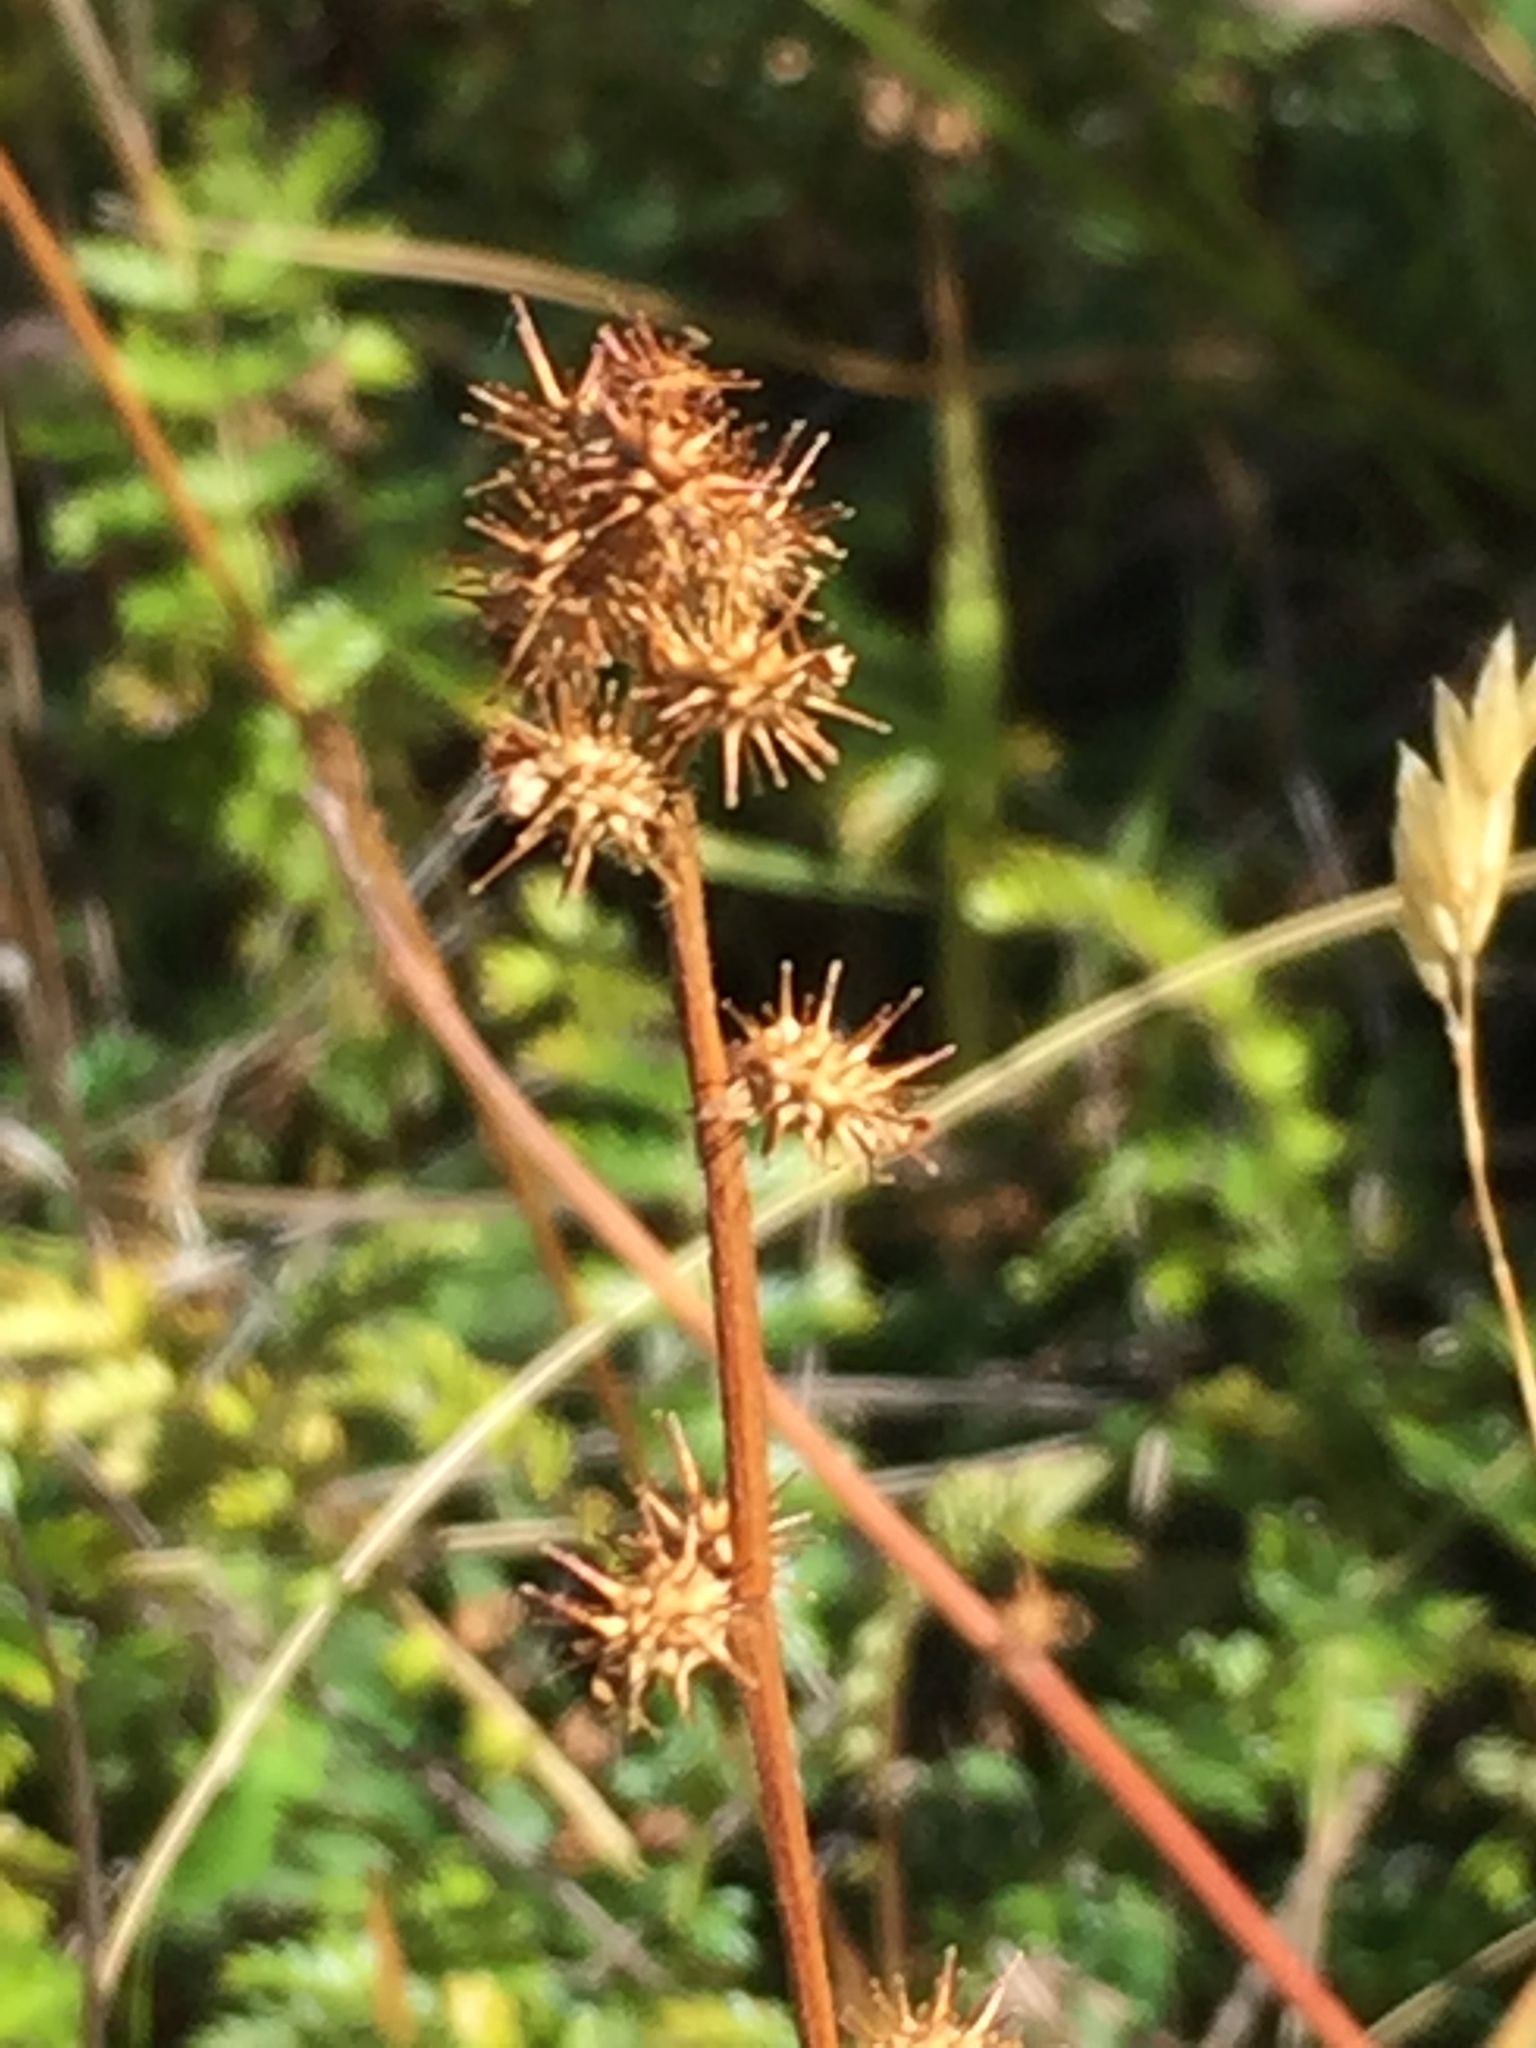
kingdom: Plantae
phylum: Tracheophyta
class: Magnoliopsida
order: Rosales
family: Rosaceae
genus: Acaena
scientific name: Acaena agnipila
